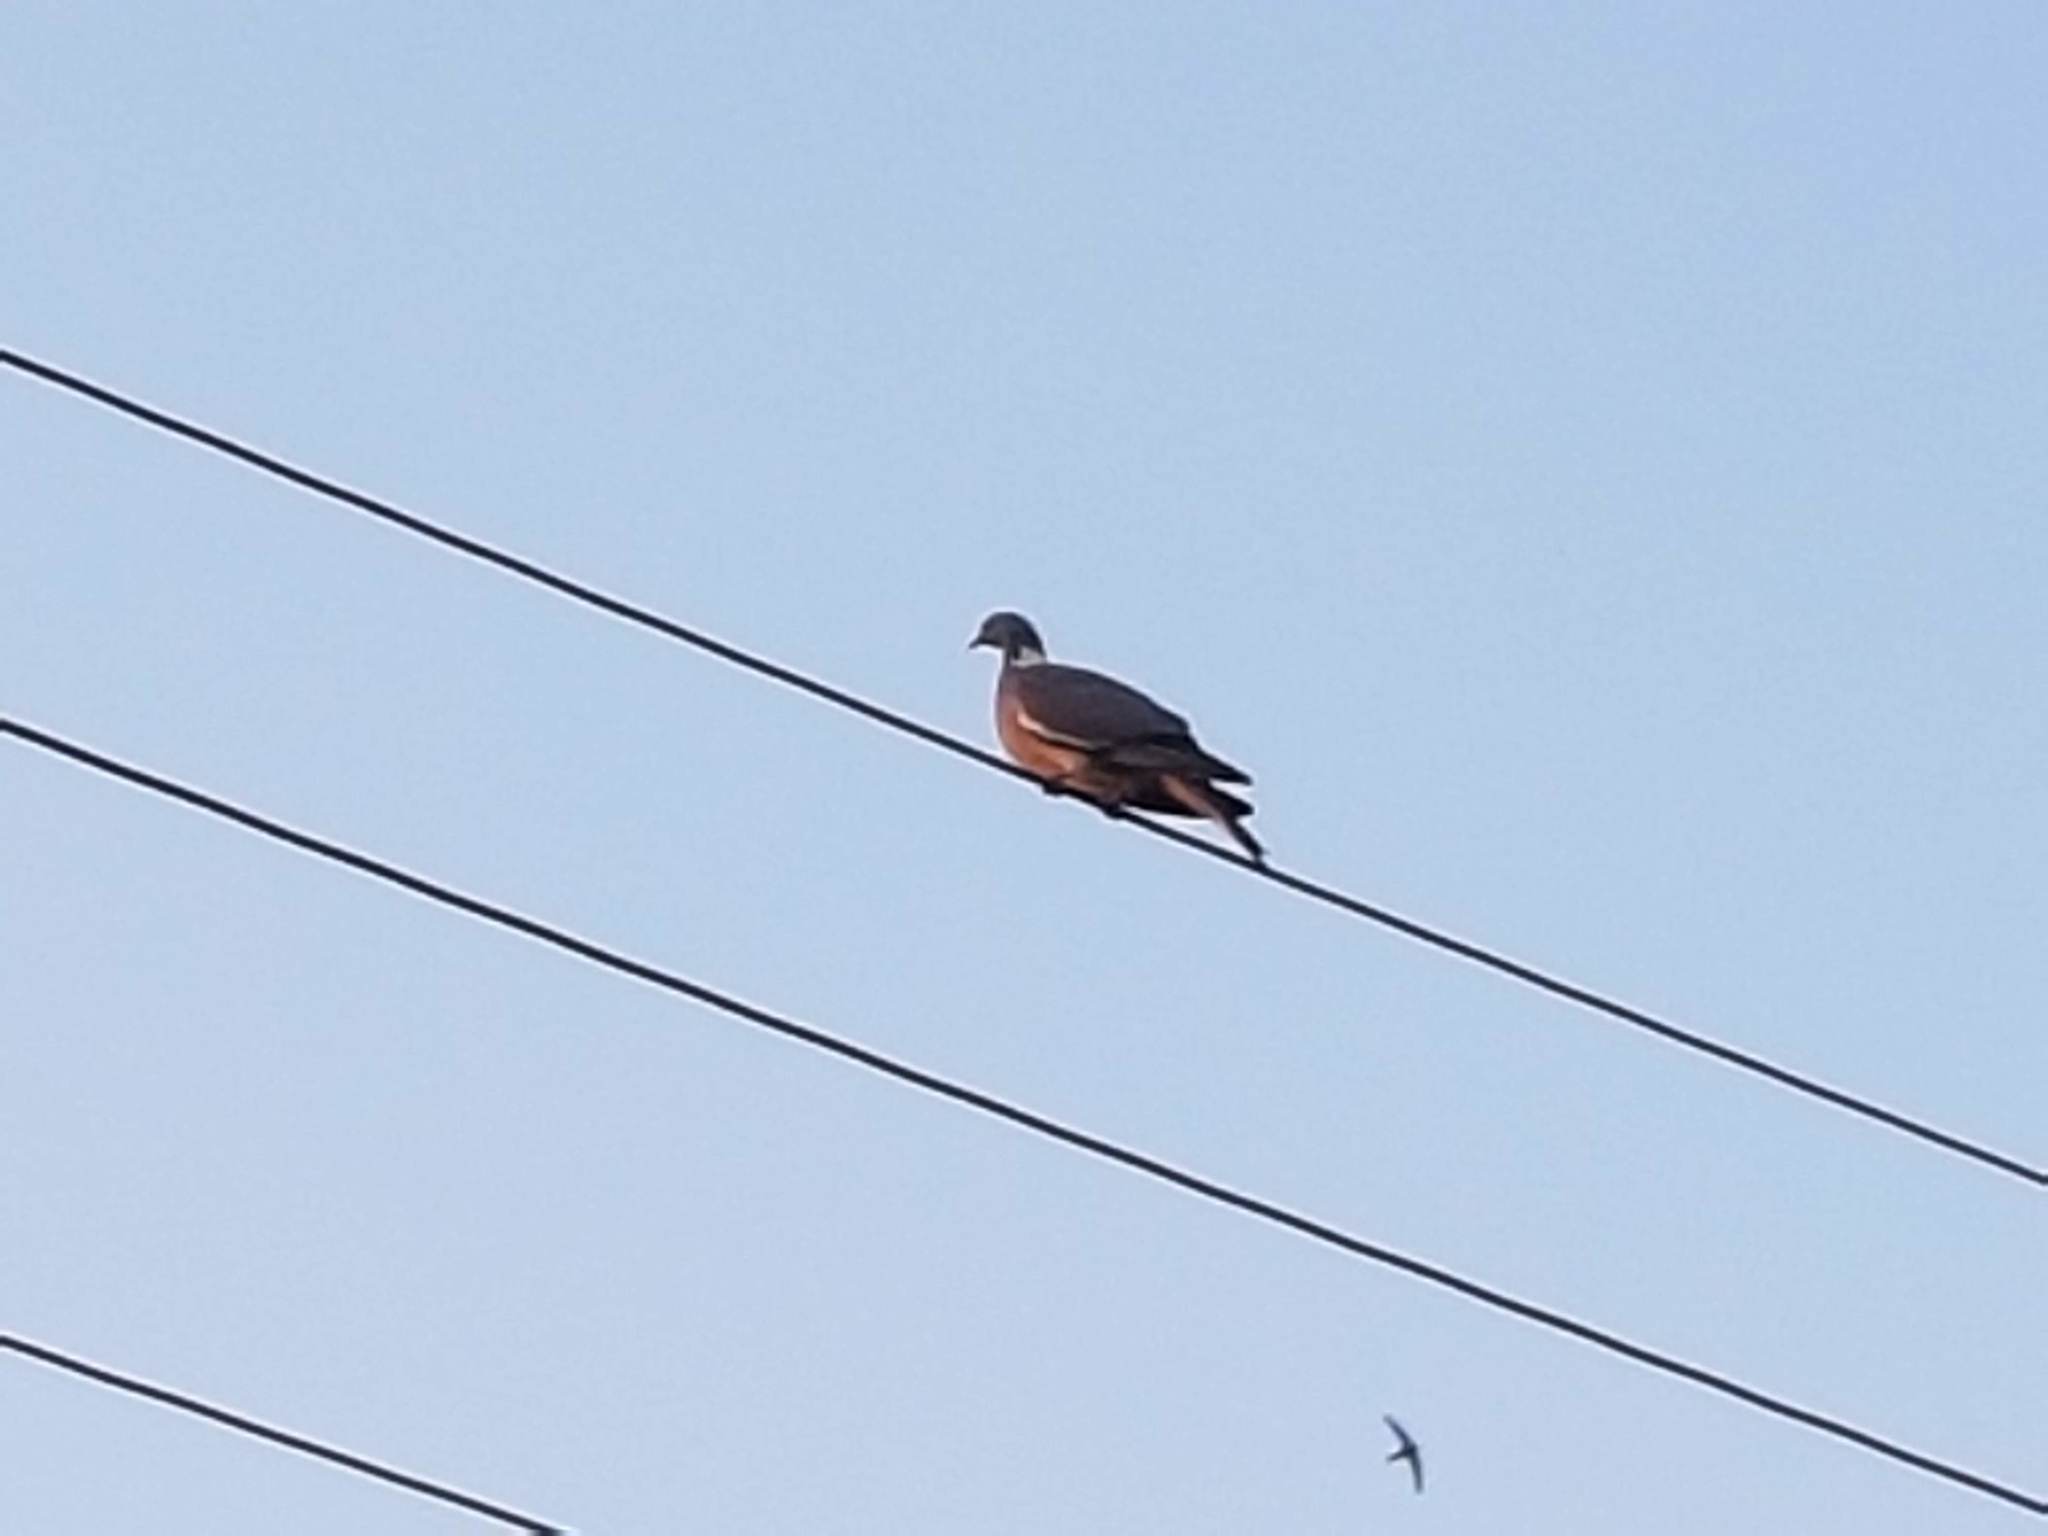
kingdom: Animalia
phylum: Chordata
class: Aves
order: Columbiformes
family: Columbidae
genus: Columba
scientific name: Columba palumbus
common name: Common wood pigeon
